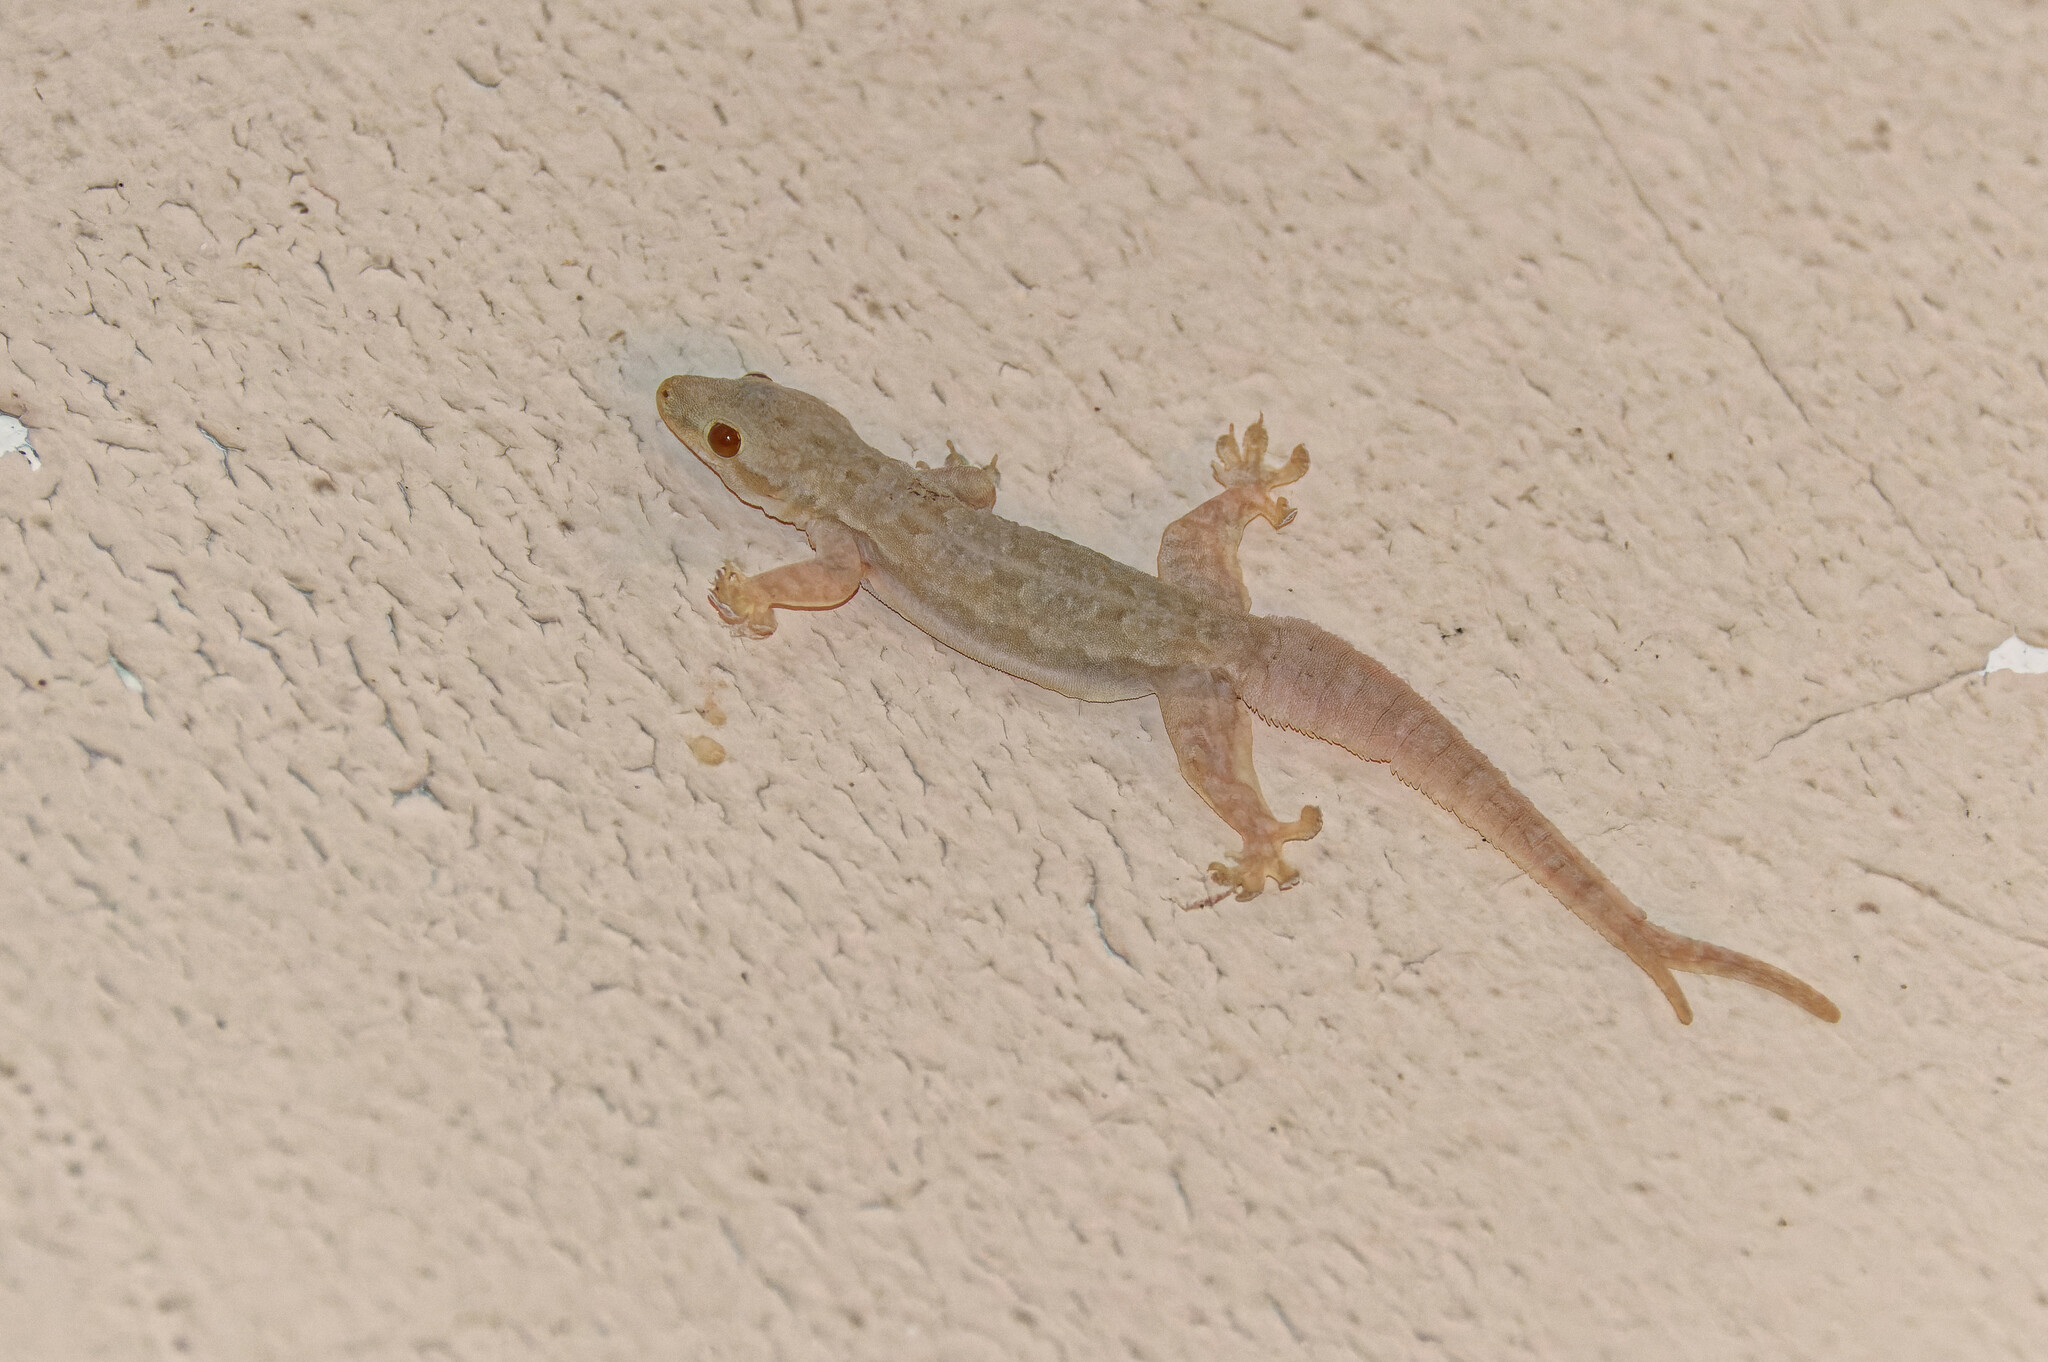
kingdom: Animalia
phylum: Chordata
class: Squamata
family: Gekkonidae
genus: Hemidactylus
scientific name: Hemidactylus platyurus
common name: Flat-tailed house gecko
